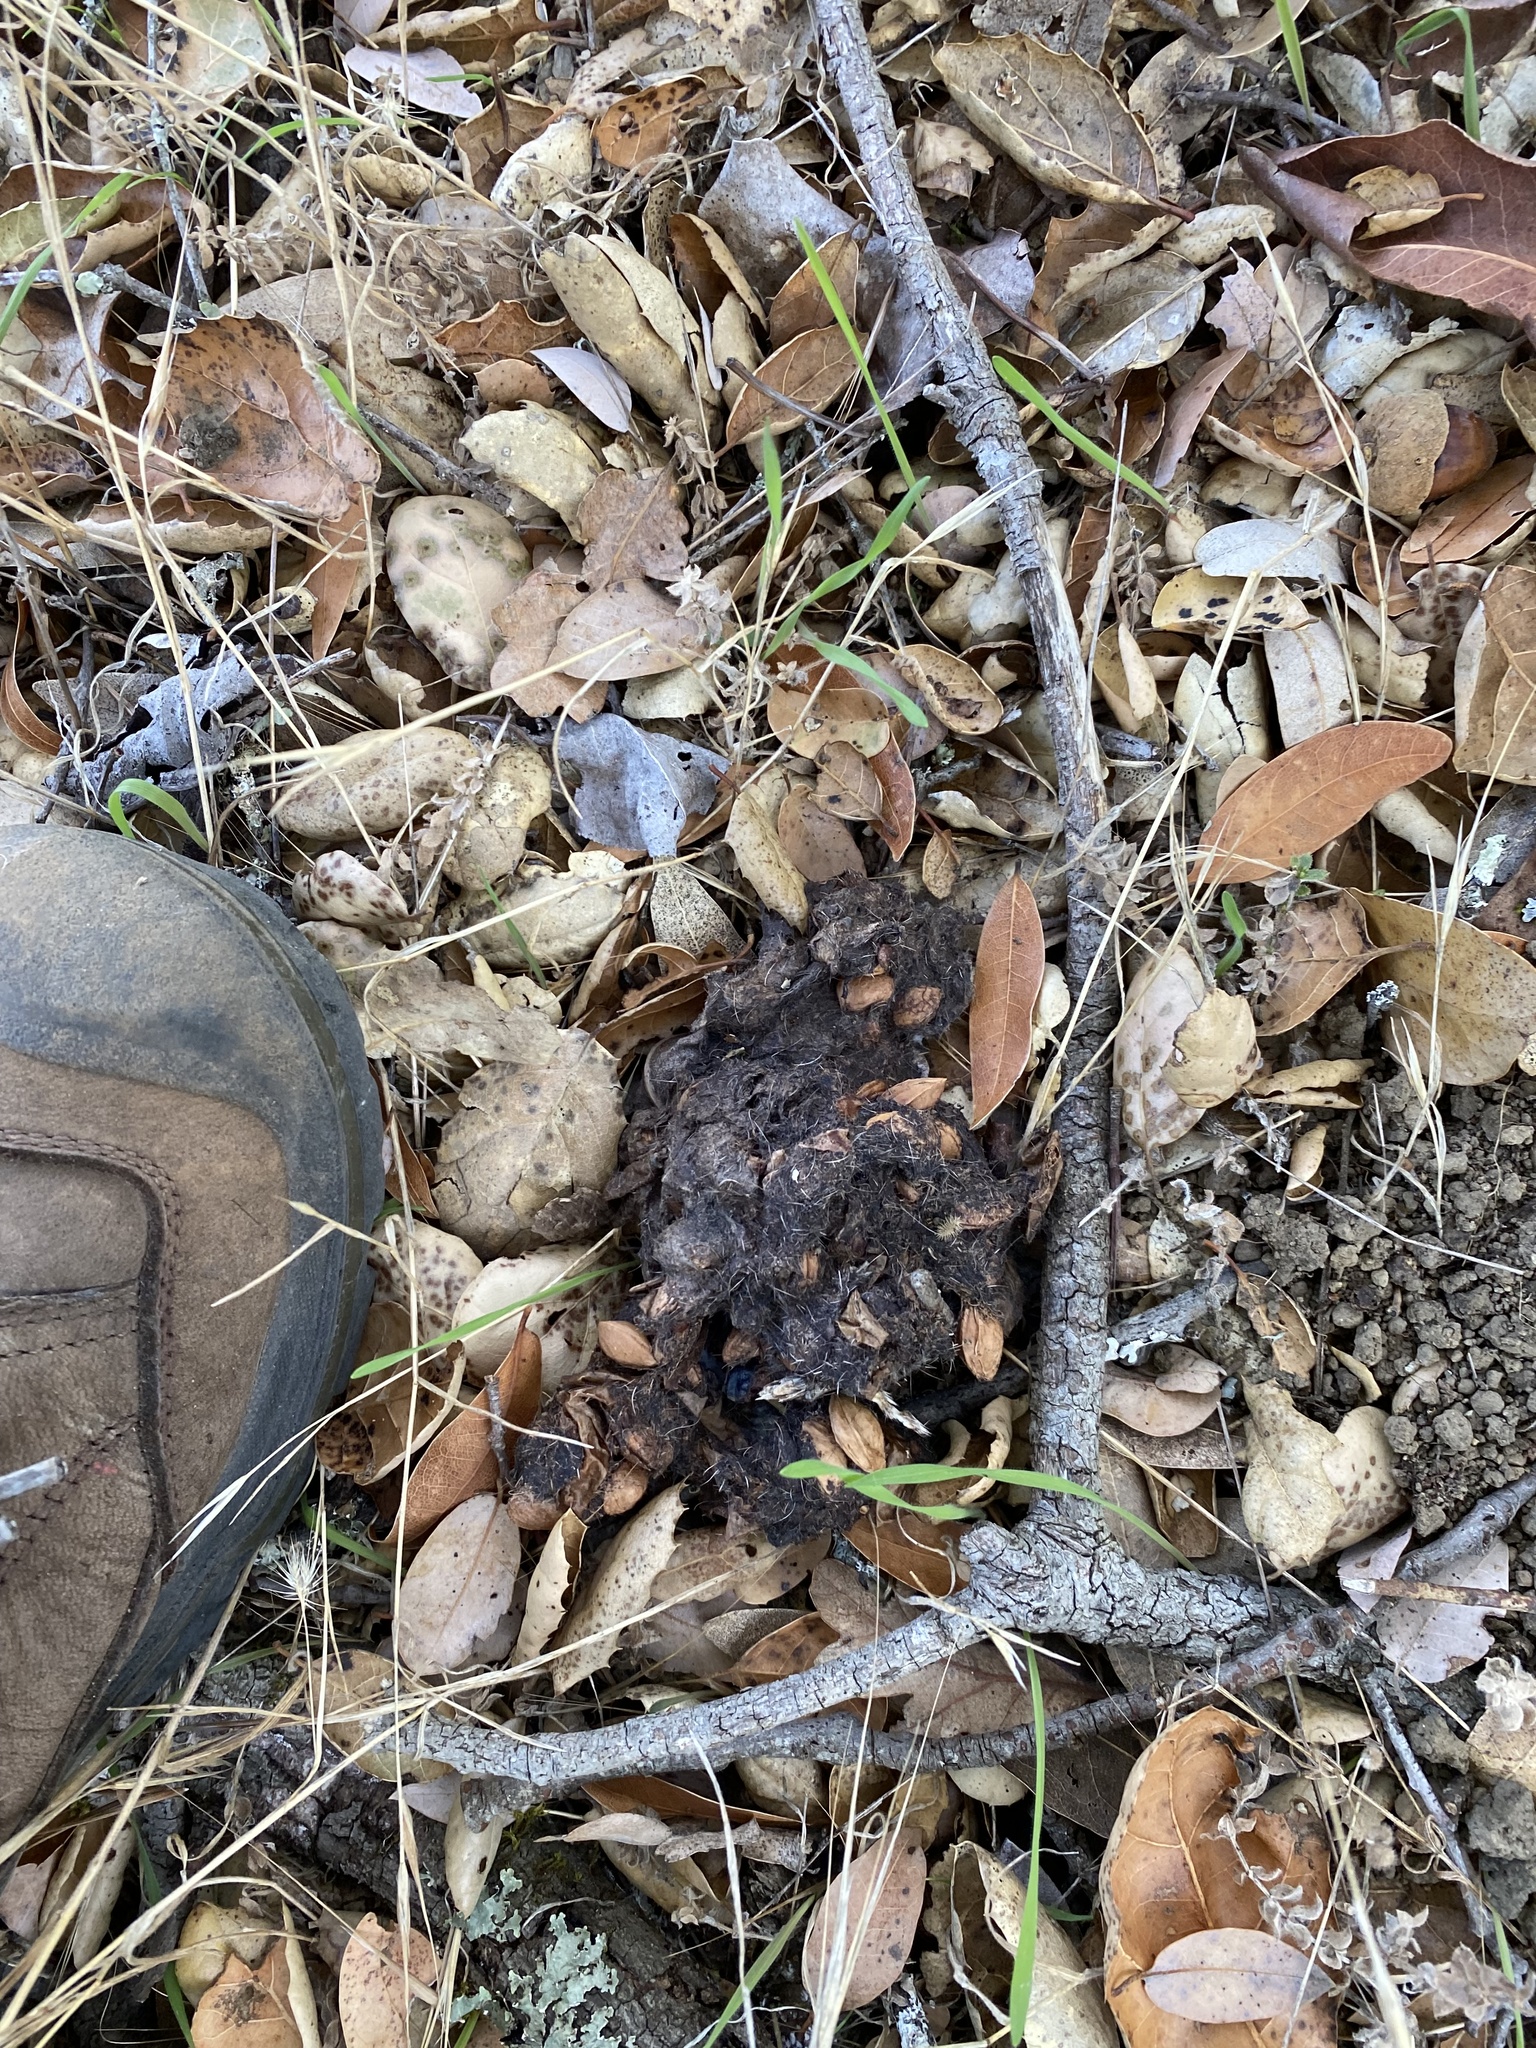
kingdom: Animalia
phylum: Chordata
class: Mammalia
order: Carnivora
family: Ursidae
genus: Ursus
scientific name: Ursus americanus
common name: American black bear
